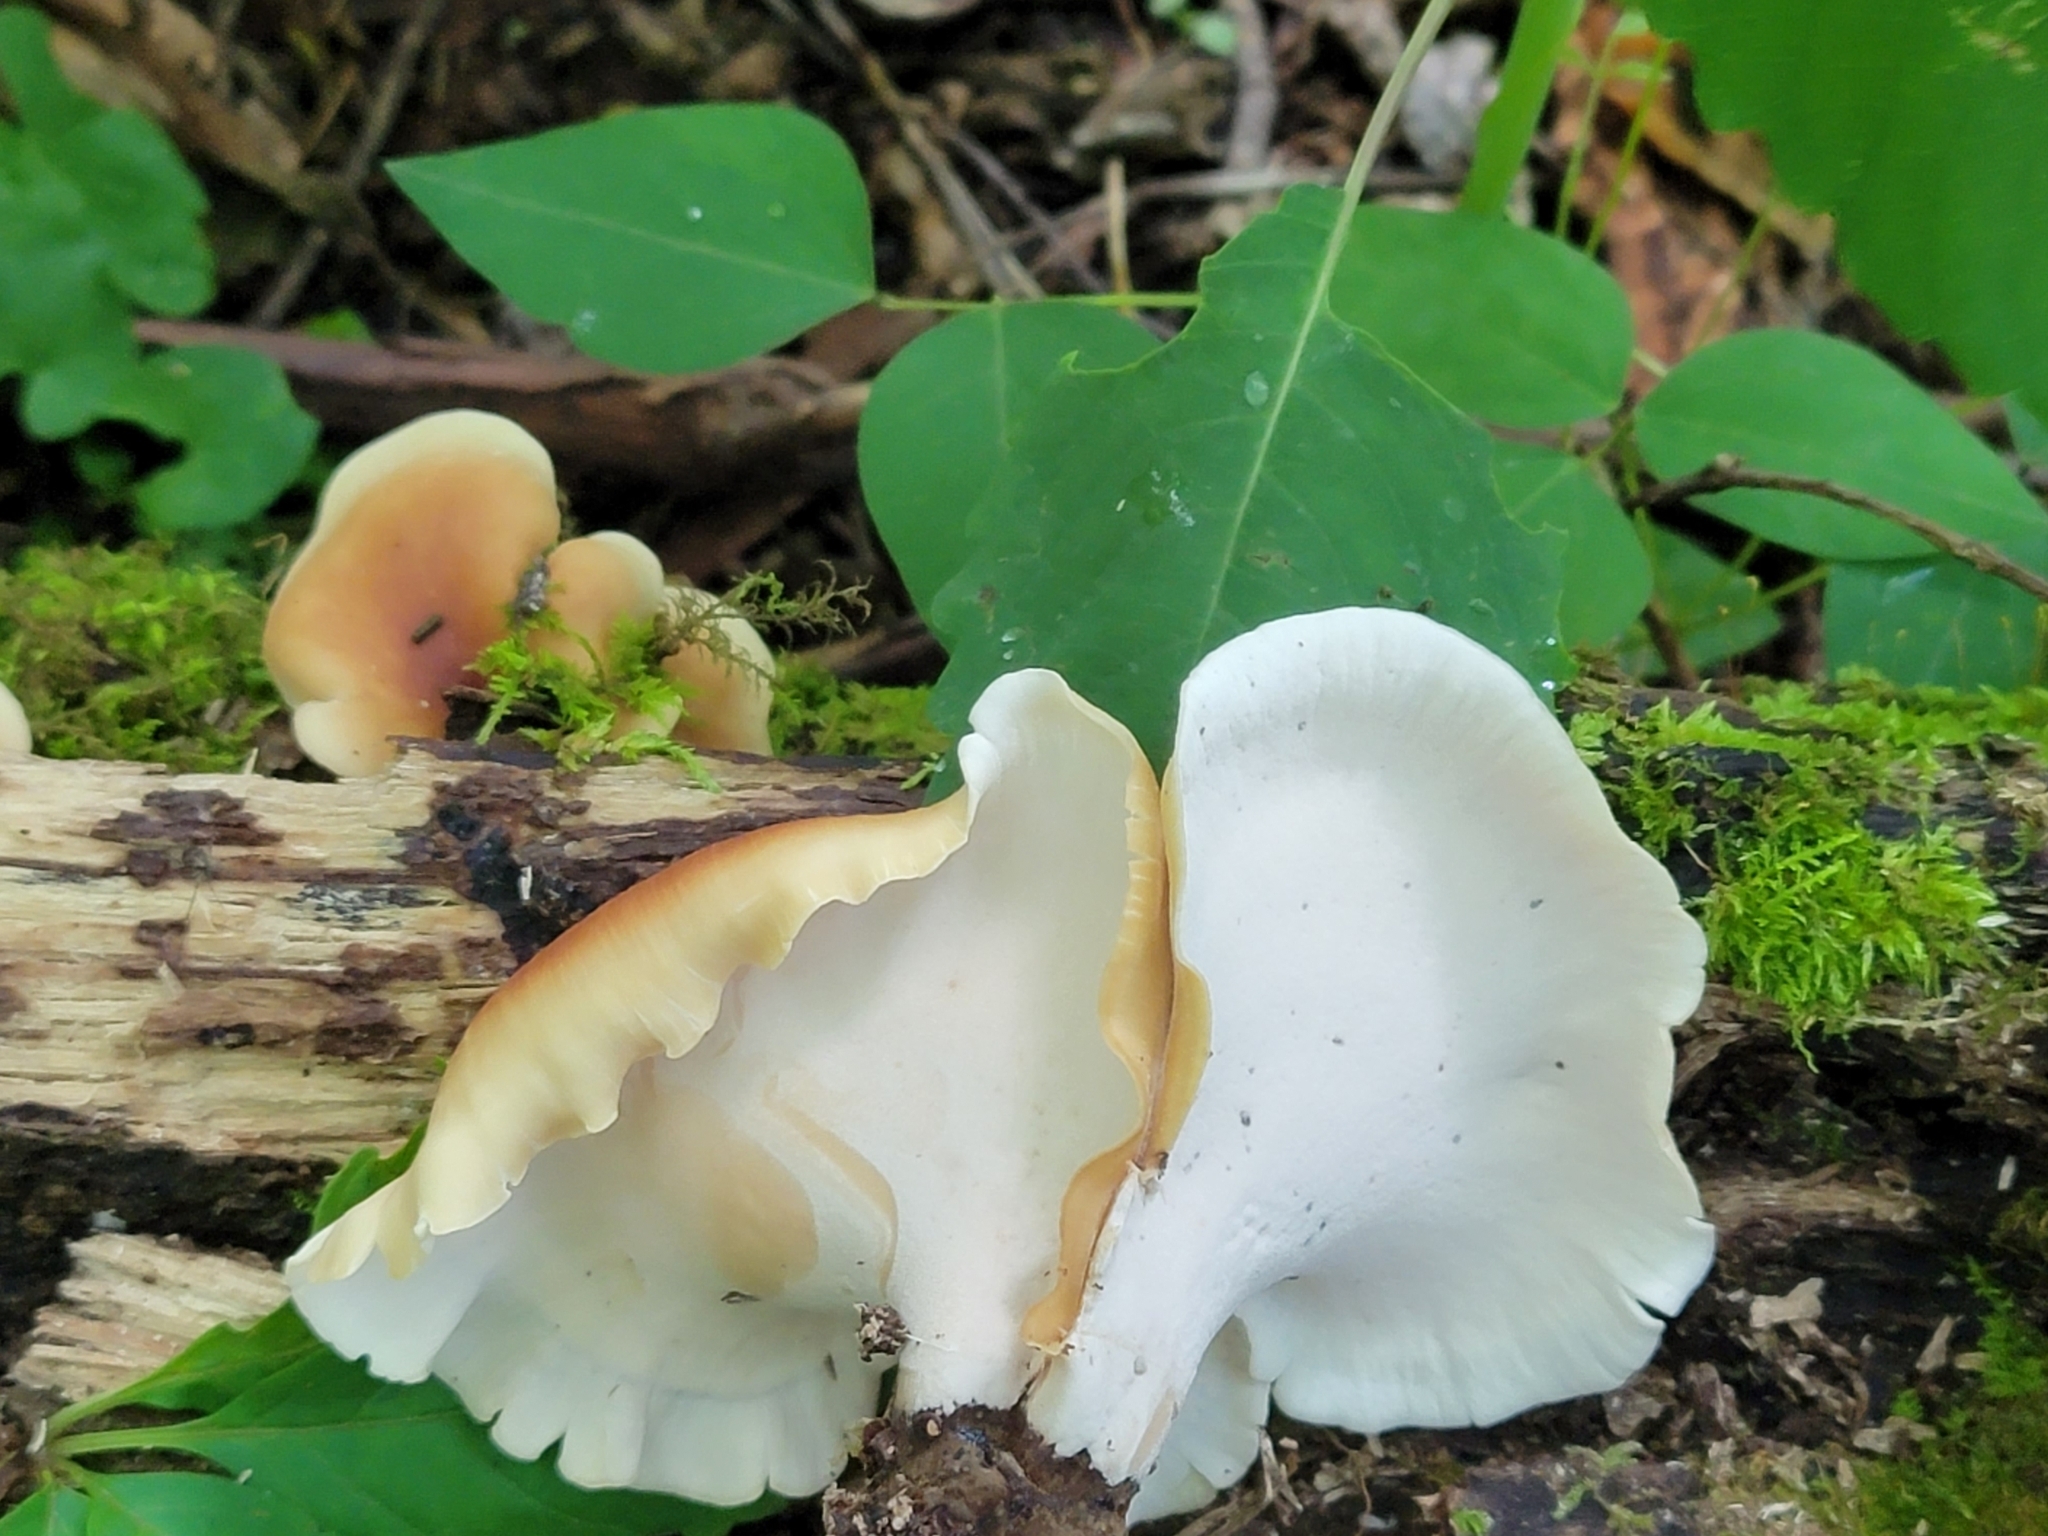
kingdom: Fungi
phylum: Basidiomycota
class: Agaricomycetes
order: Polyporales
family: Polyporaceae
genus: Picipes
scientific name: Picipes badius
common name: Bay polypore
